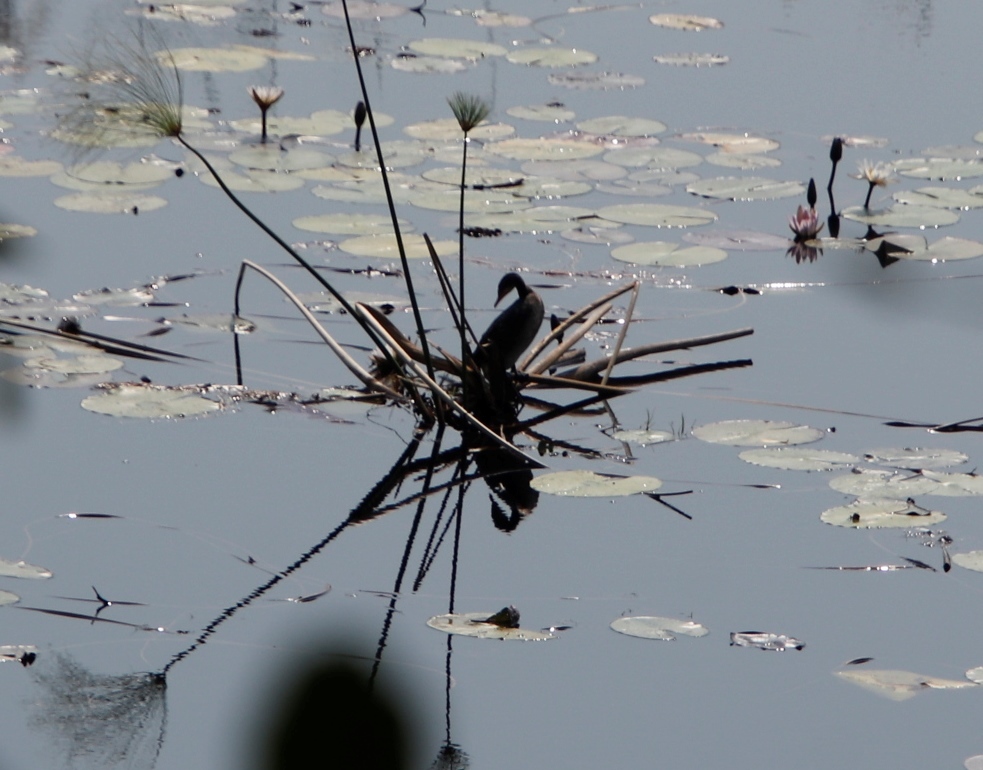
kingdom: Animalia
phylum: Chordata
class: Aves
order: Suliformes
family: Phalacrocoracidae
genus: Microcarbo
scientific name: Microcarbo africanus
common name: Long-tailed cormorant
